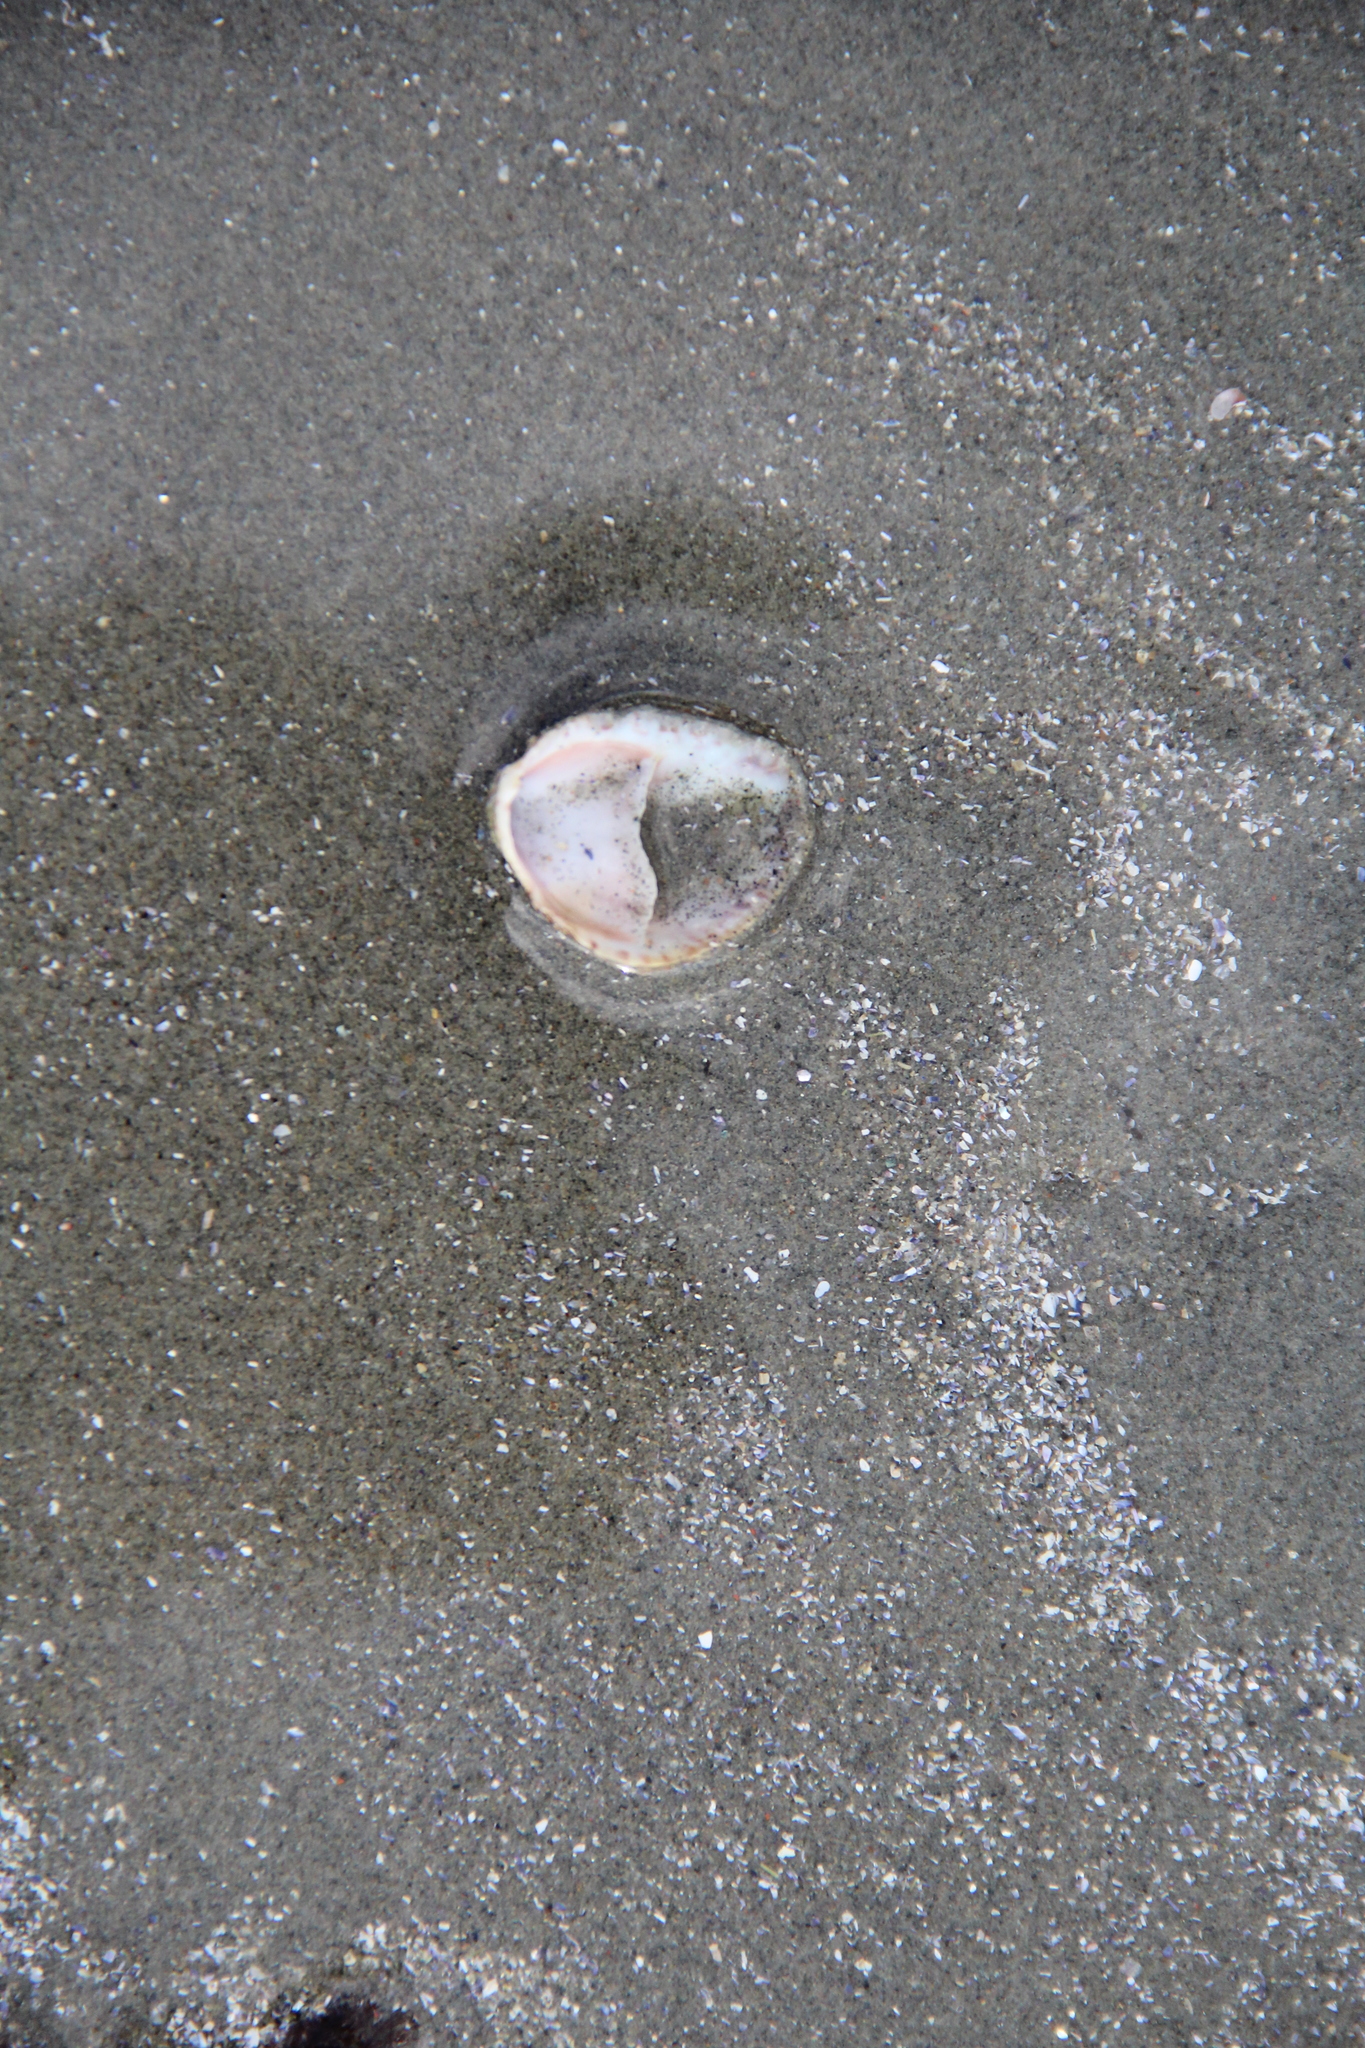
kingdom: Animalia
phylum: Mollusca
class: Gastropoda
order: Littorinimorpha
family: Calyptraeidae
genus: Crepidula
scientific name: Crepidula fornicata
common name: Slipper limpet
